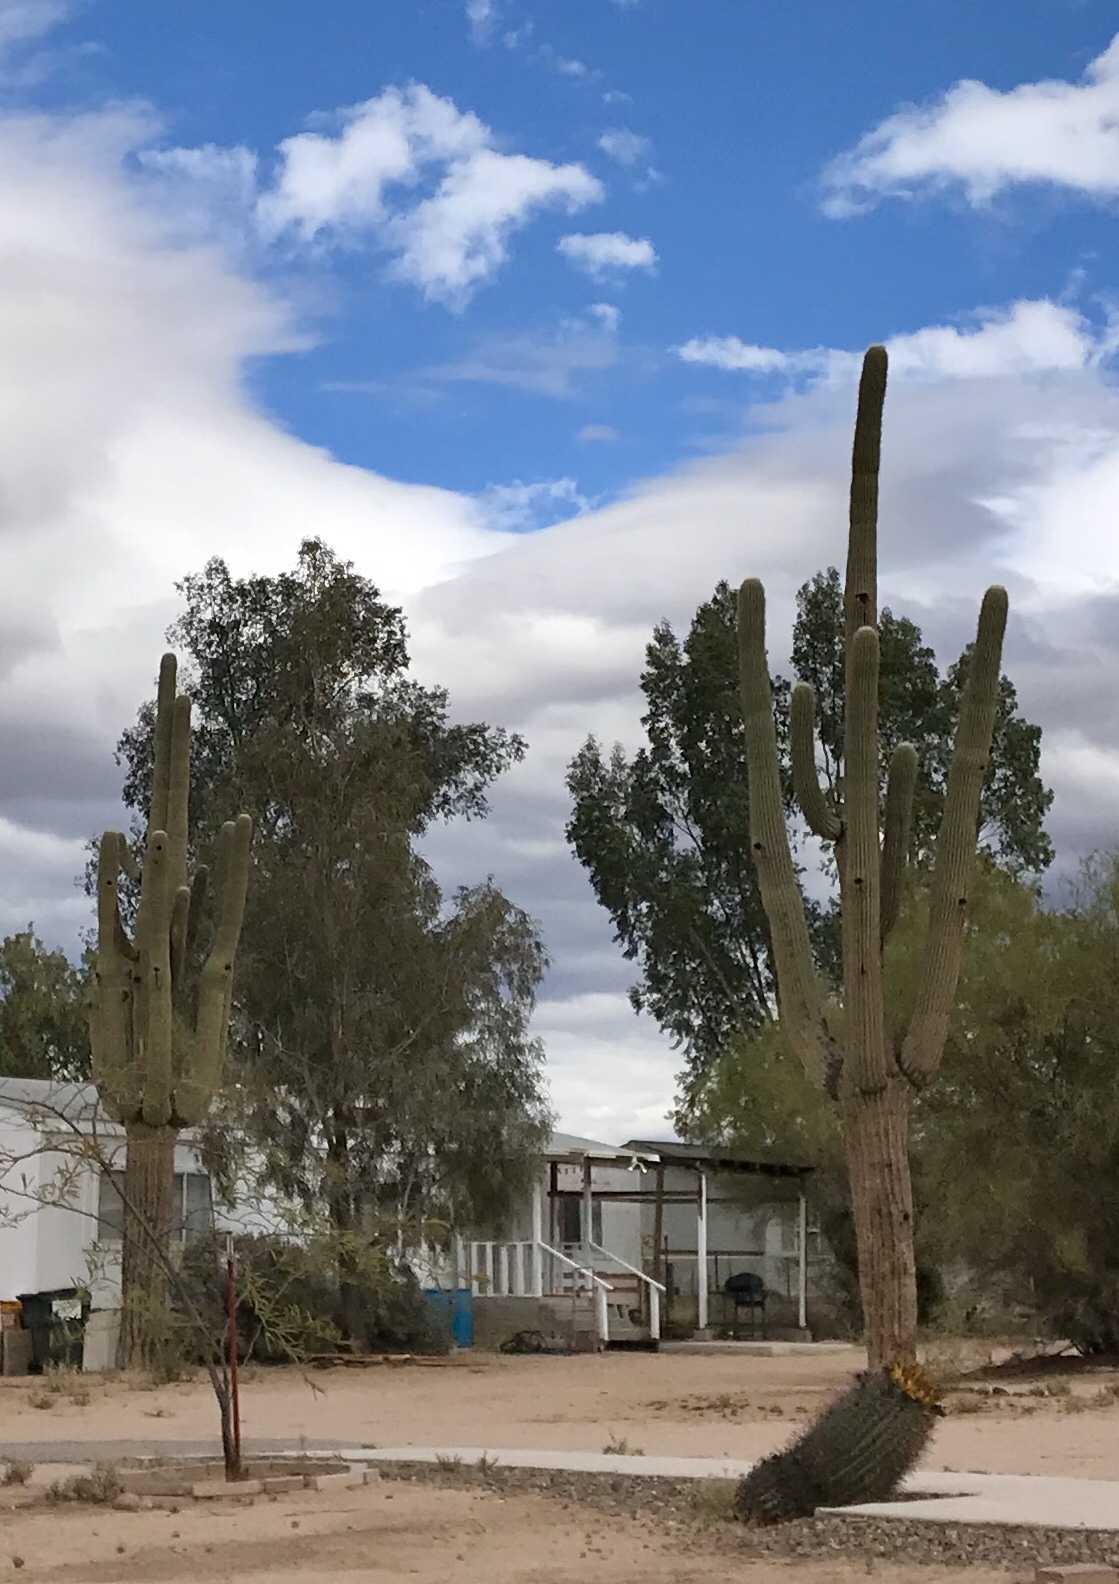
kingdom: Plantae
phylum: Tracheophyta
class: Magnoliopsida
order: Caryophyllales
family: Cactaceae
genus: Carnegiea
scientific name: Carnegiea gigantea
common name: Saguaro
